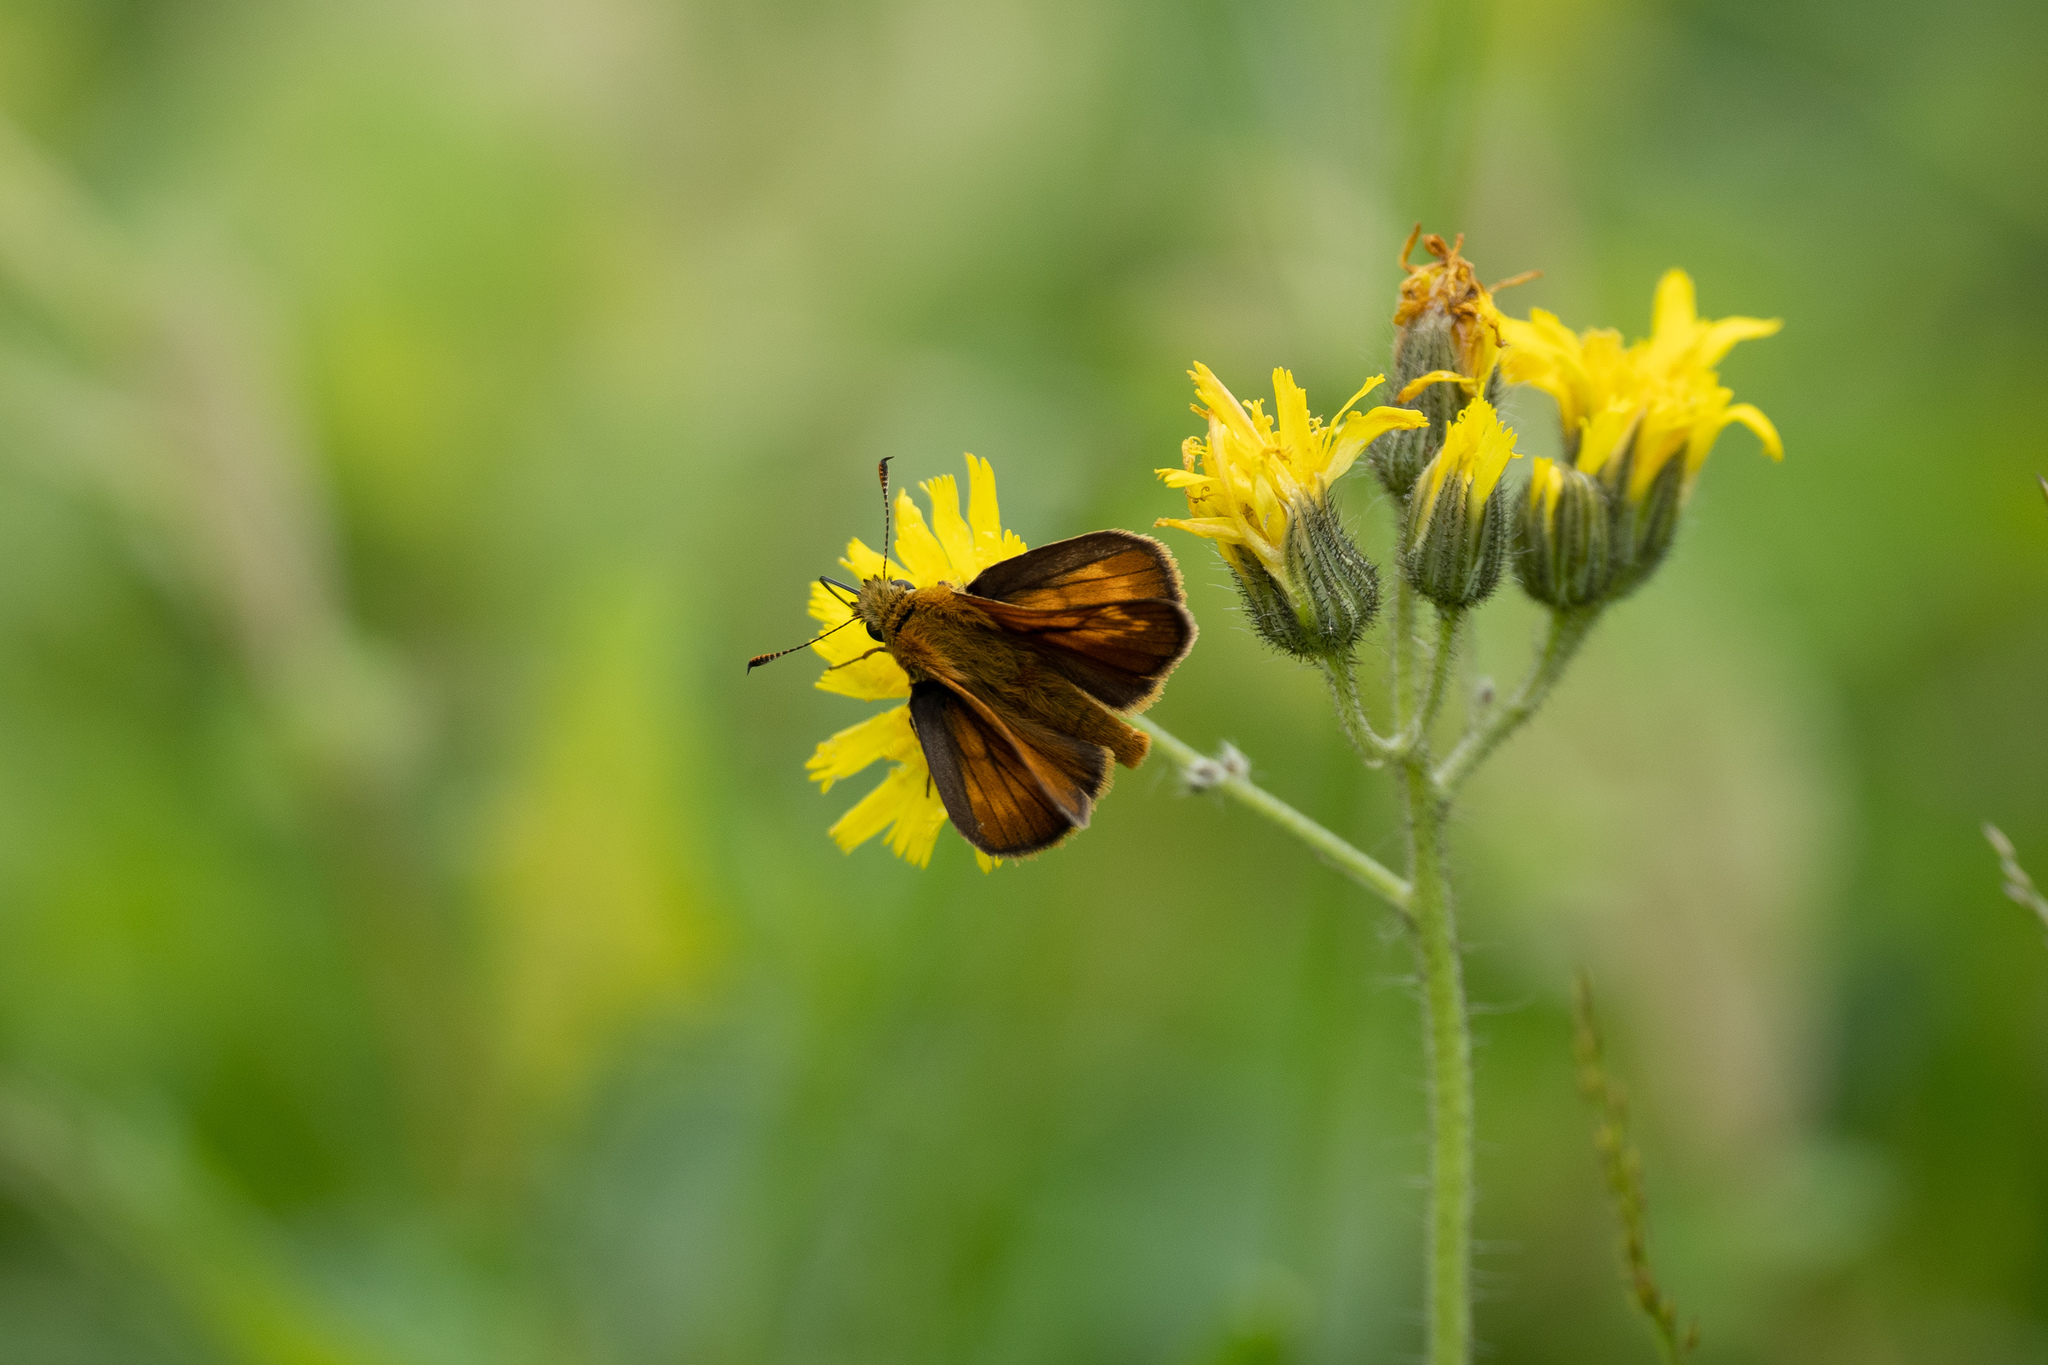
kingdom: Animalia
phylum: Arthropoda
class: Insecta
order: Lepidoptera
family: Hesperiidae
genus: Ochlodes
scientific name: Ochlodes venata
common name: Large skipper
